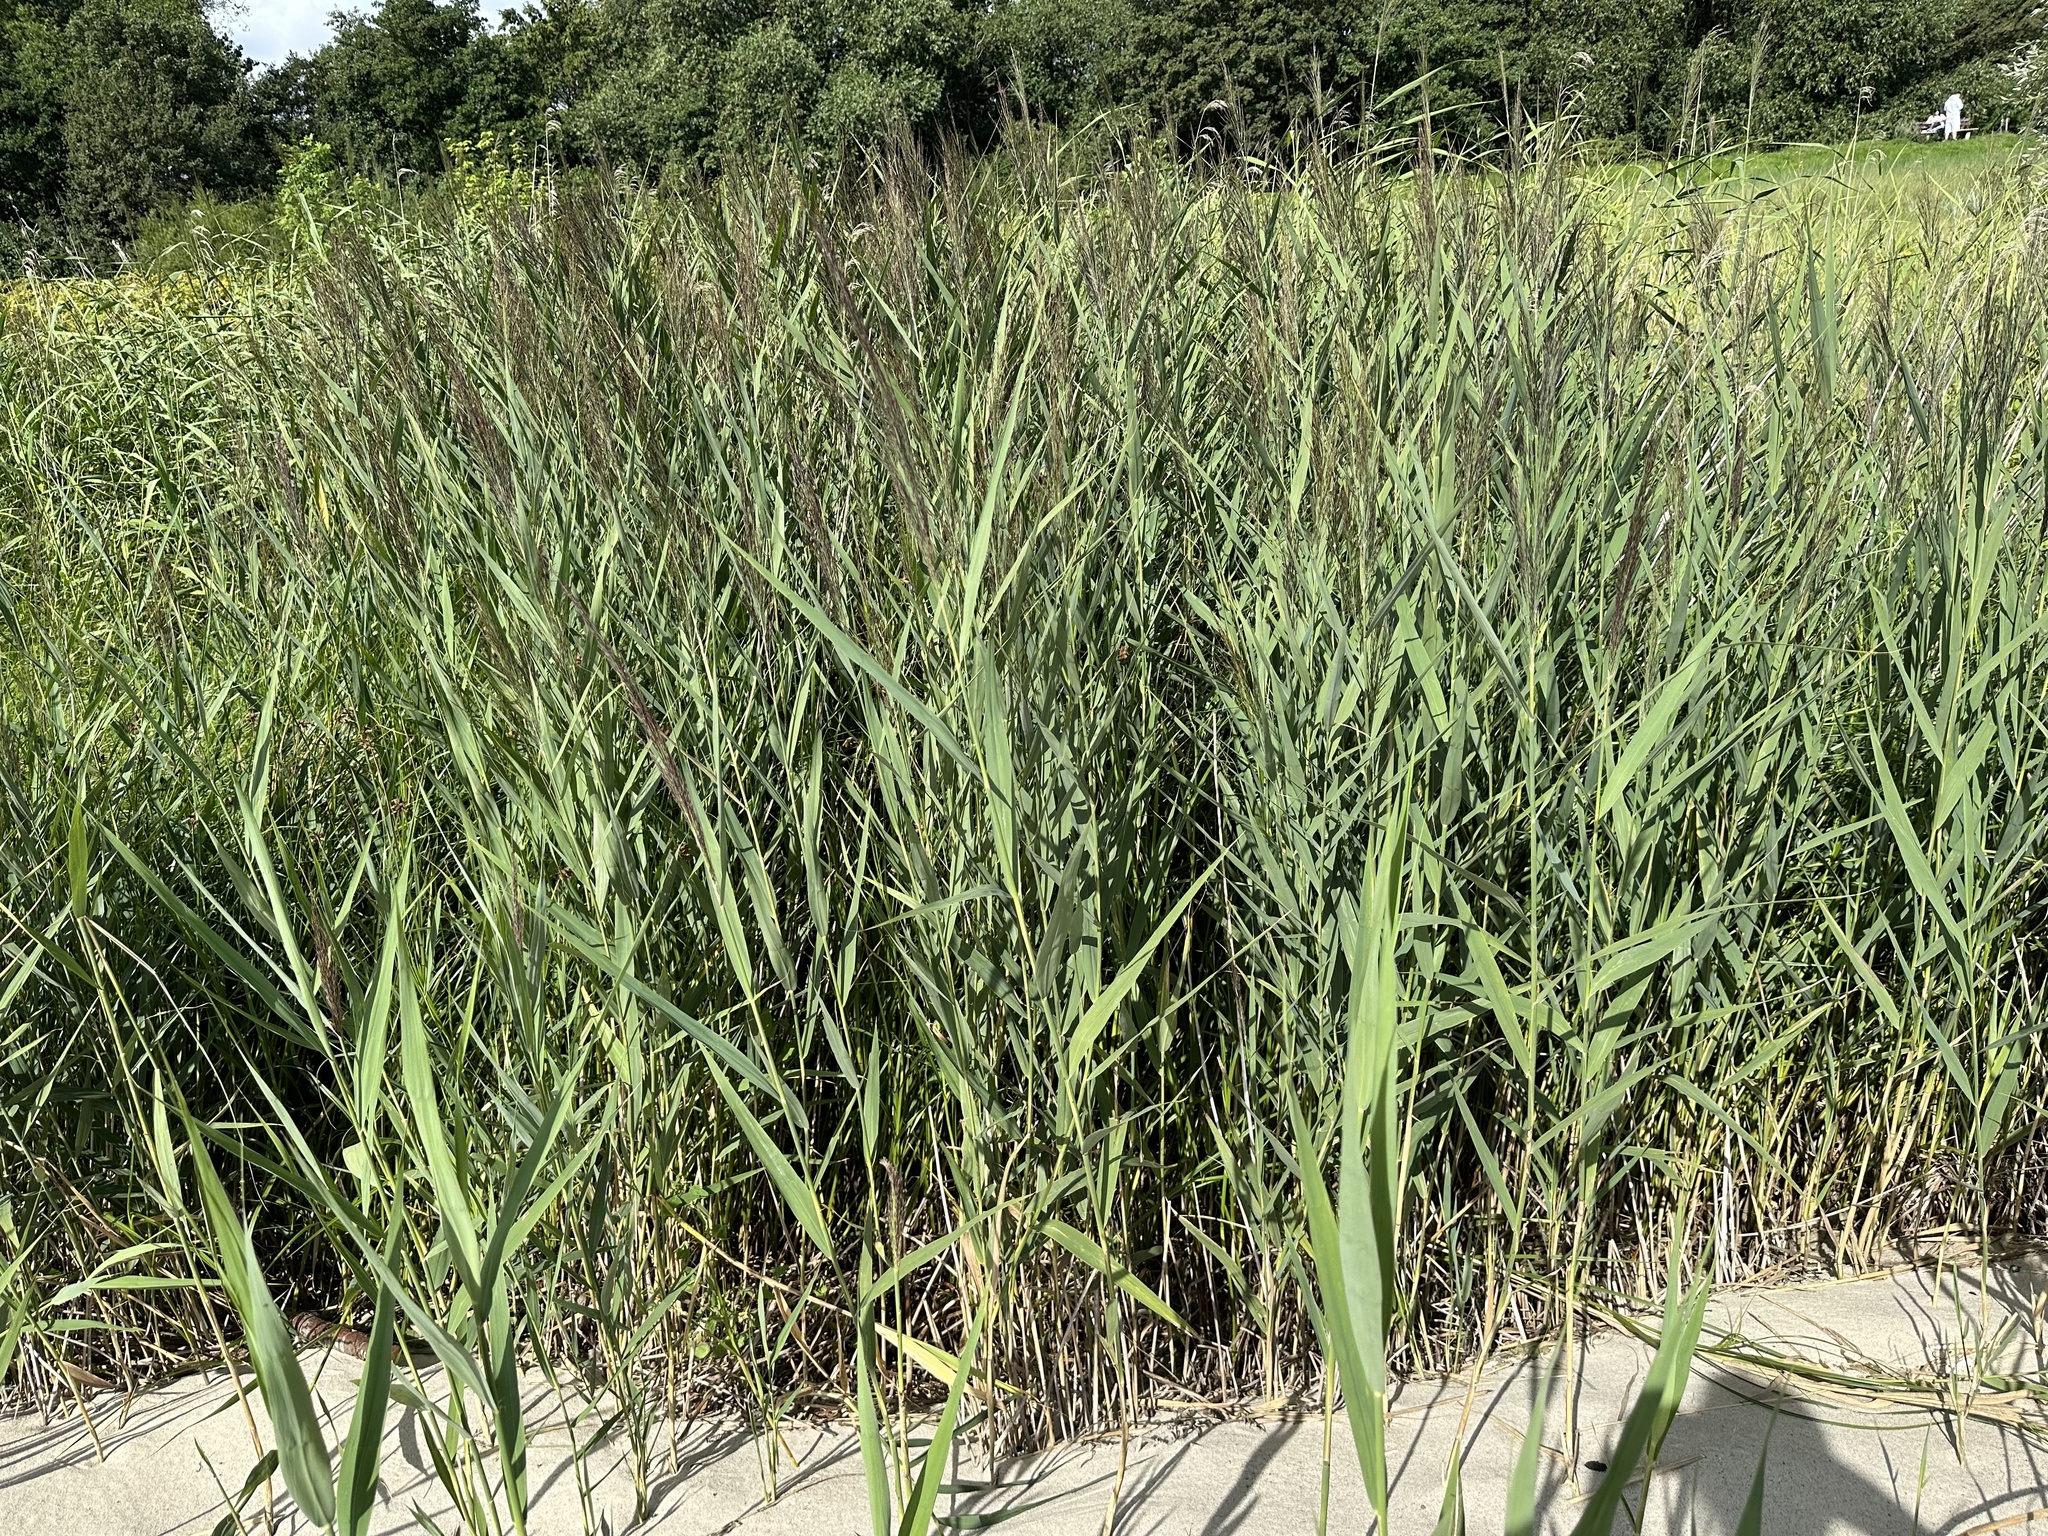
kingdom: Plantae
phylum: Tracheophyta
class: Liliopsida
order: Poales
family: Poaceae
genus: Phragmites
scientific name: Phragmites australis
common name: Common reed
